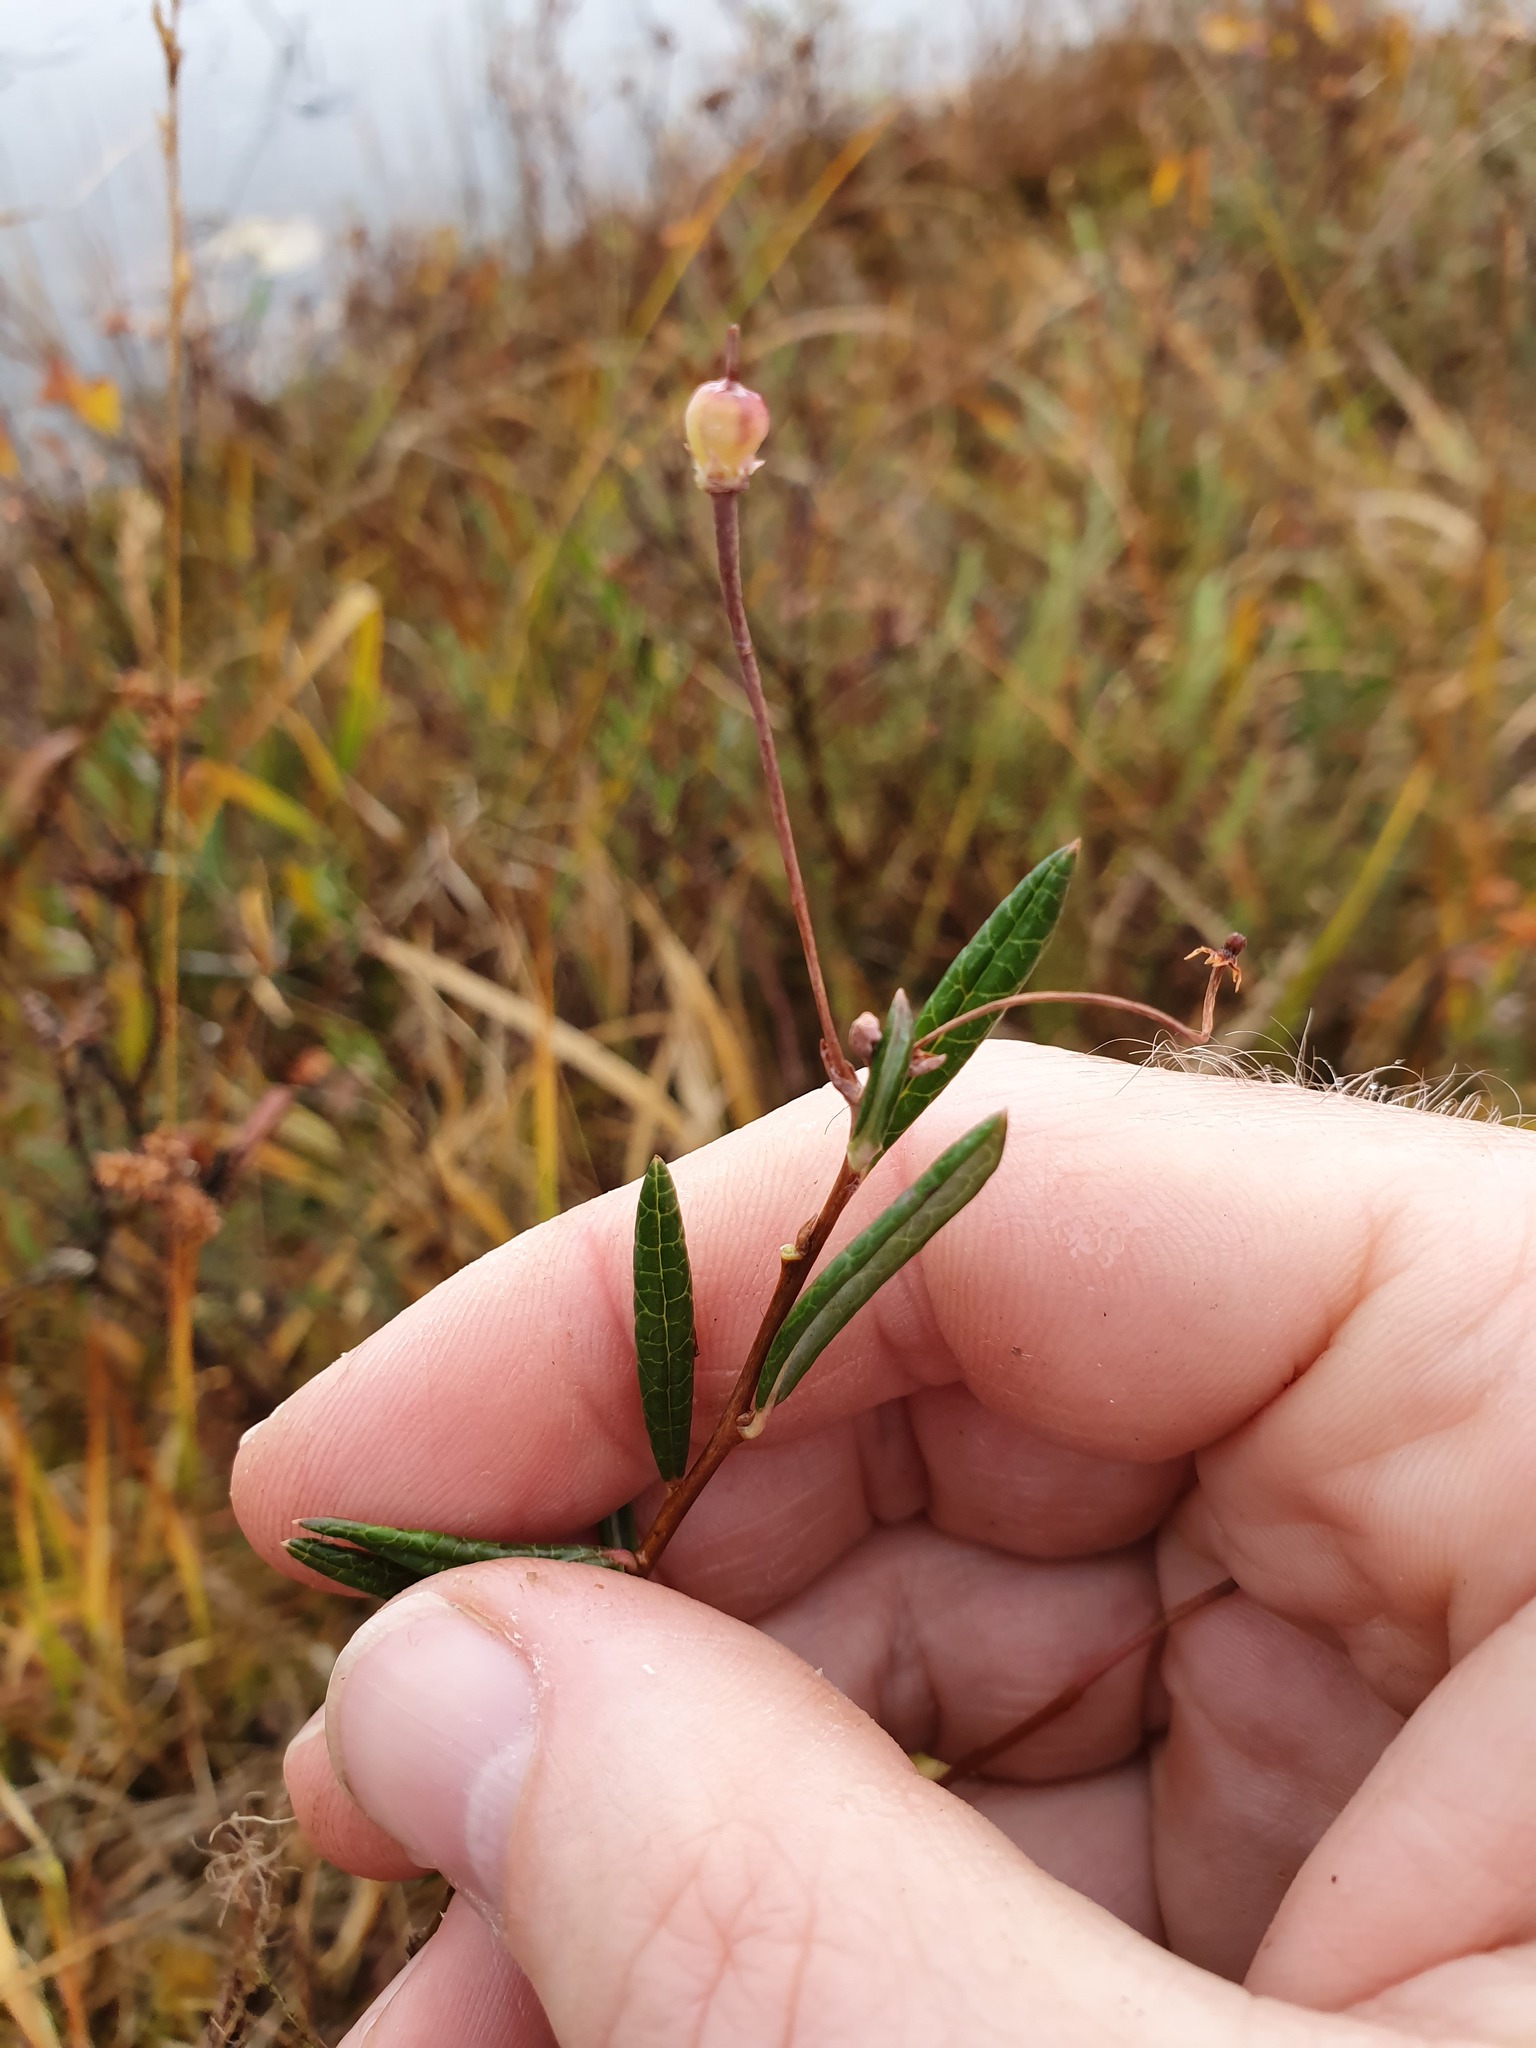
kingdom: Plantae
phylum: Tracheophyta
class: Magnoliopsida
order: Ericales
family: Ericaceae
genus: Andromeda
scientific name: Andromeda polifolia
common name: Bog-rosemary
